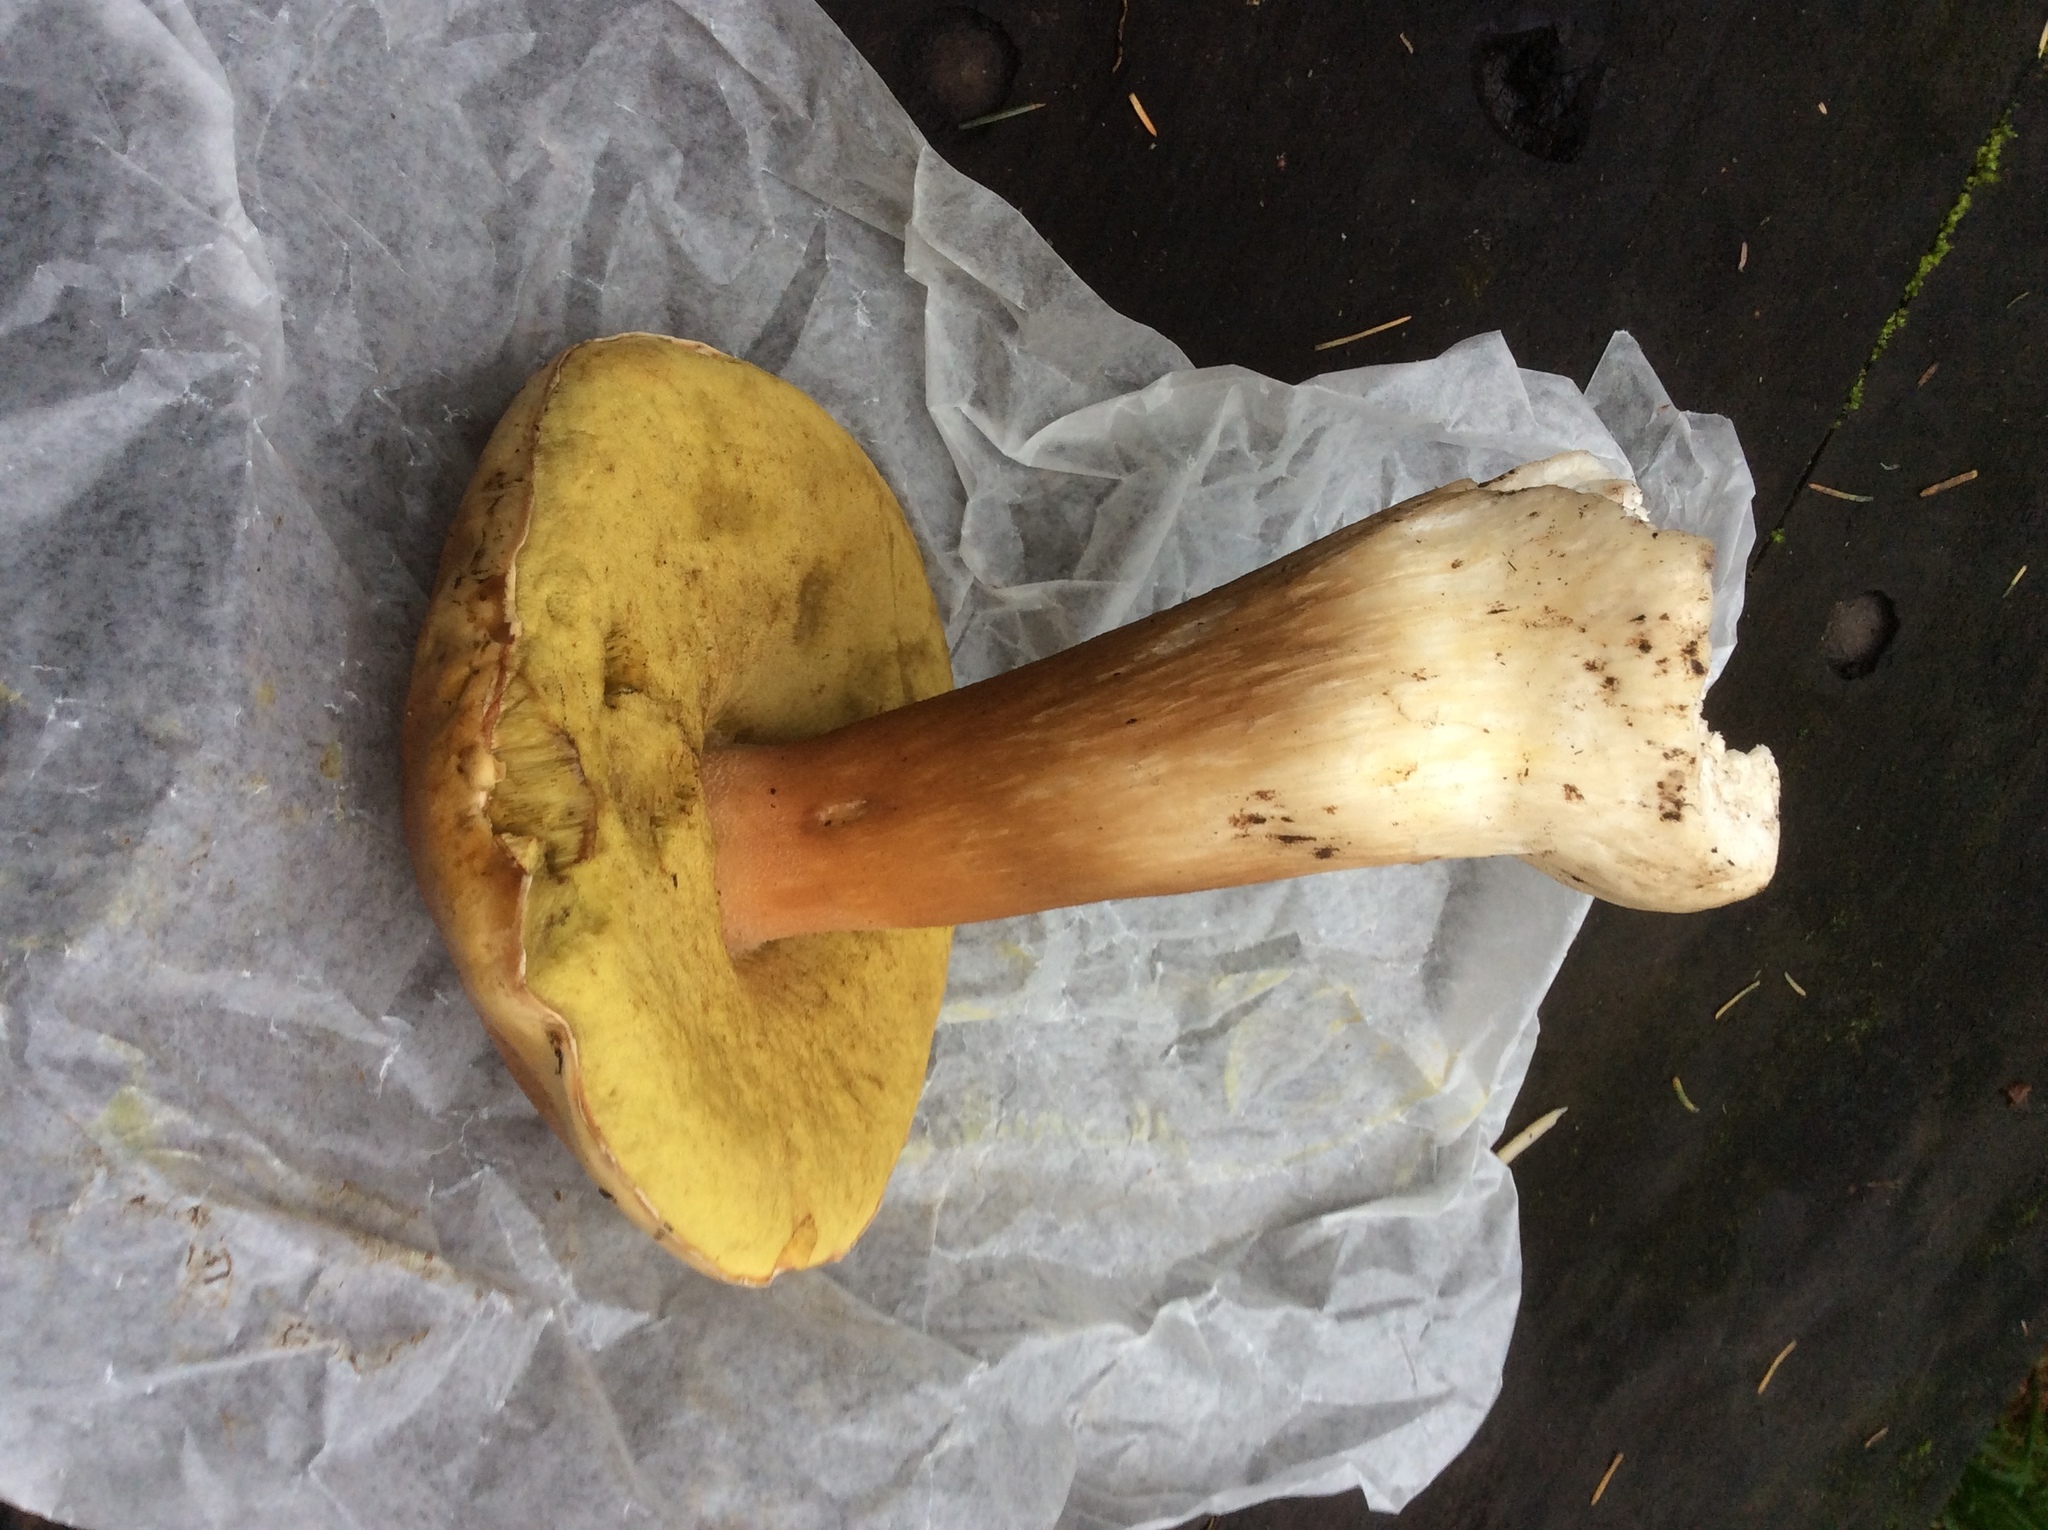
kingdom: Fungi
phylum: Basidiomycota
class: Agaricomycetes
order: Boletales
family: Boletaceae
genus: Boletus
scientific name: Boletus edulis
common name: Cep
